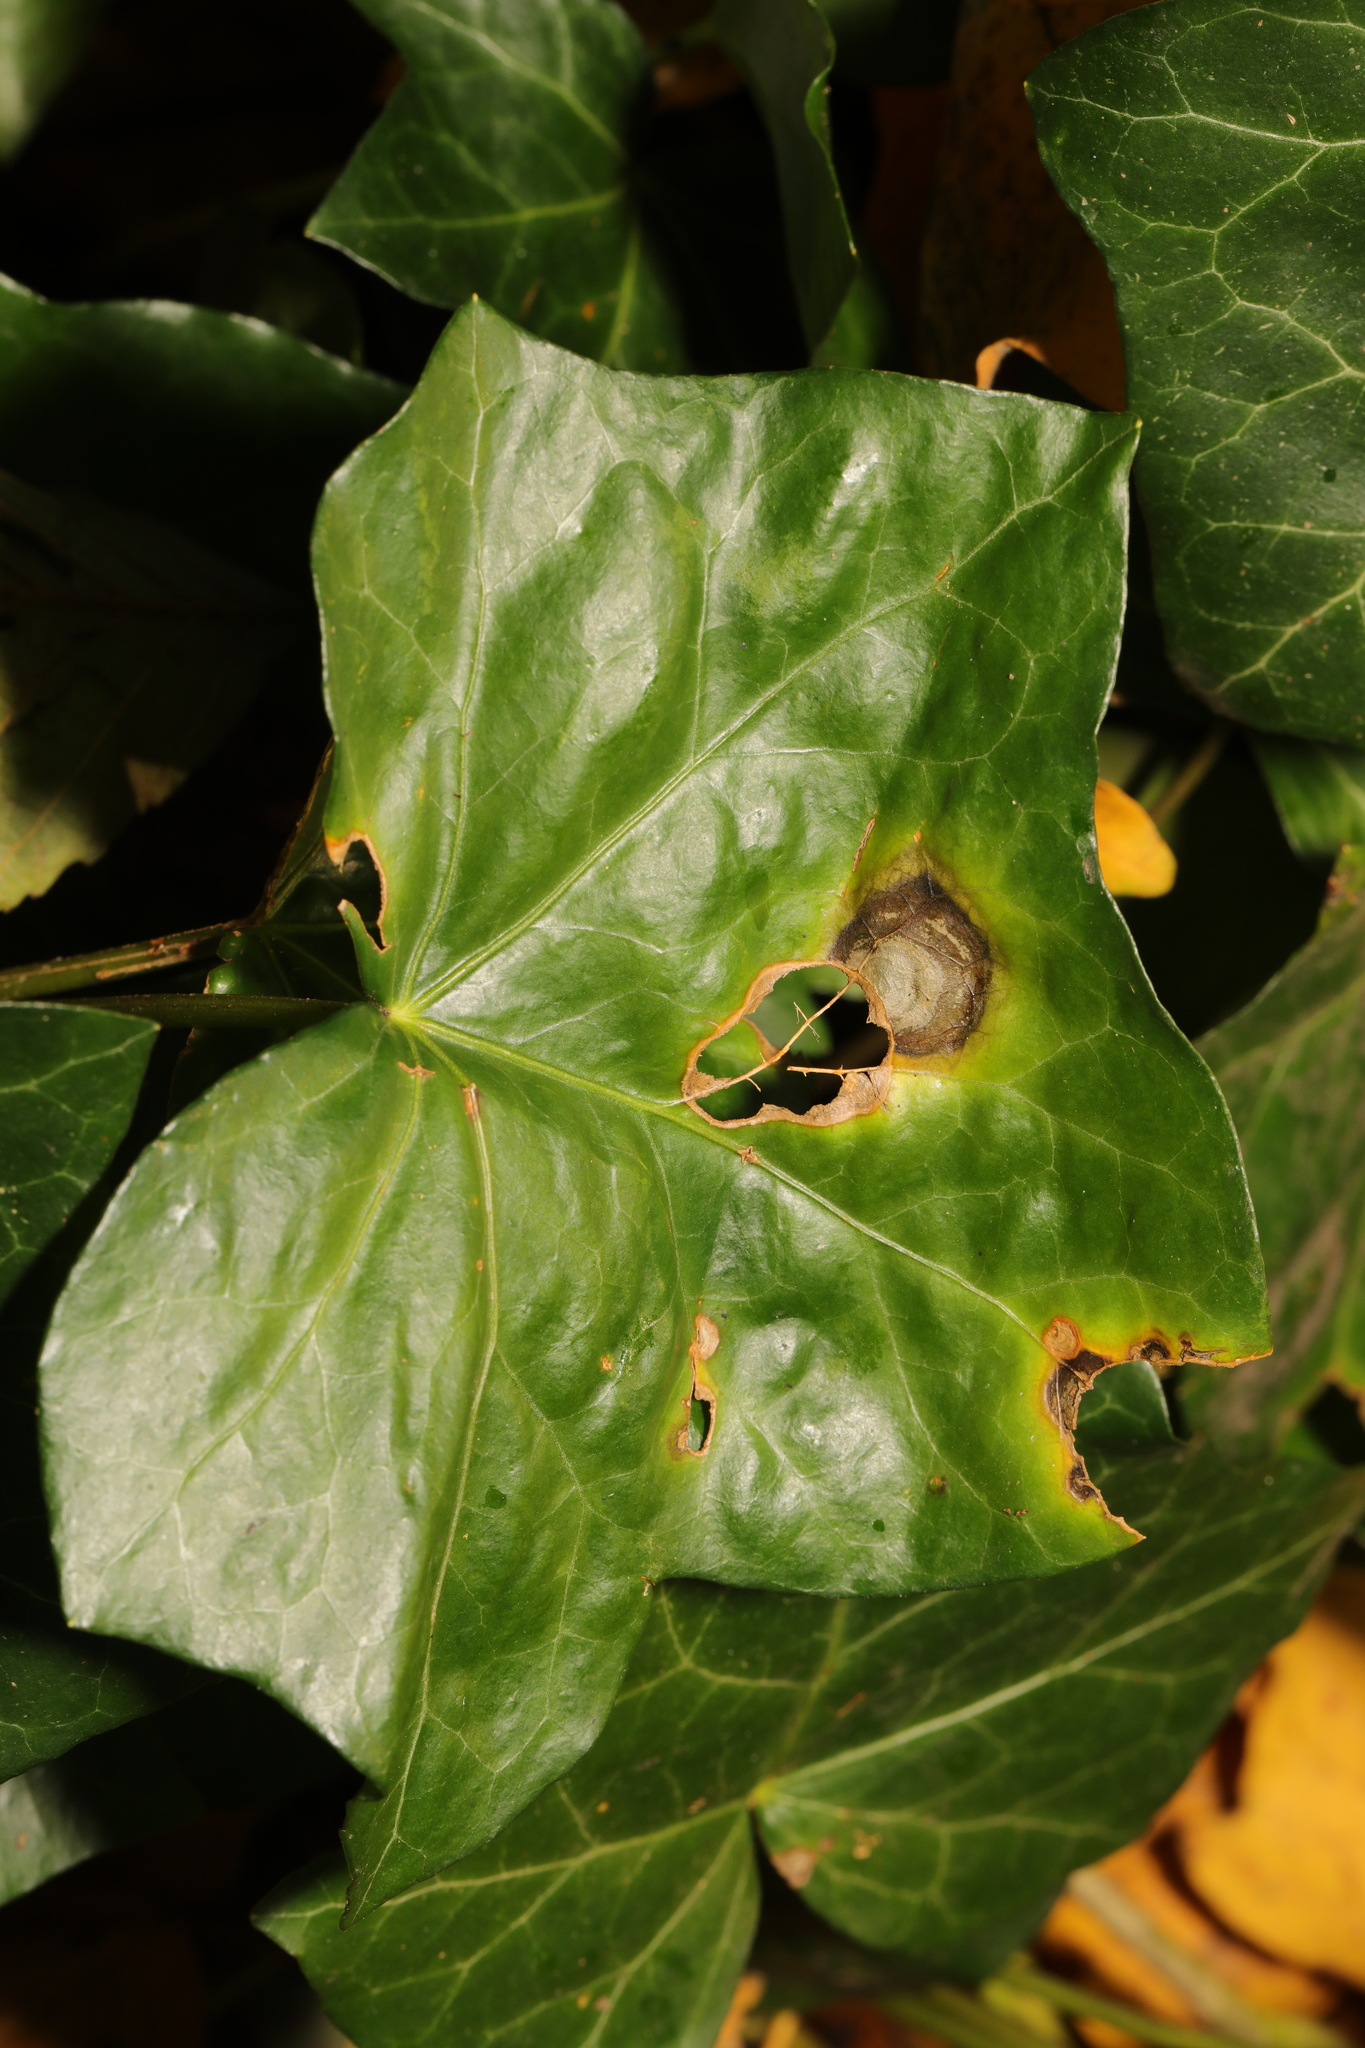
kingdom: Fungi
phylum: Ascomycota
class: Dothideomycetes
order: Pleosporales
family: Didymellaceae
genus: Boeremia
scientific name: Boeremia hedericola
